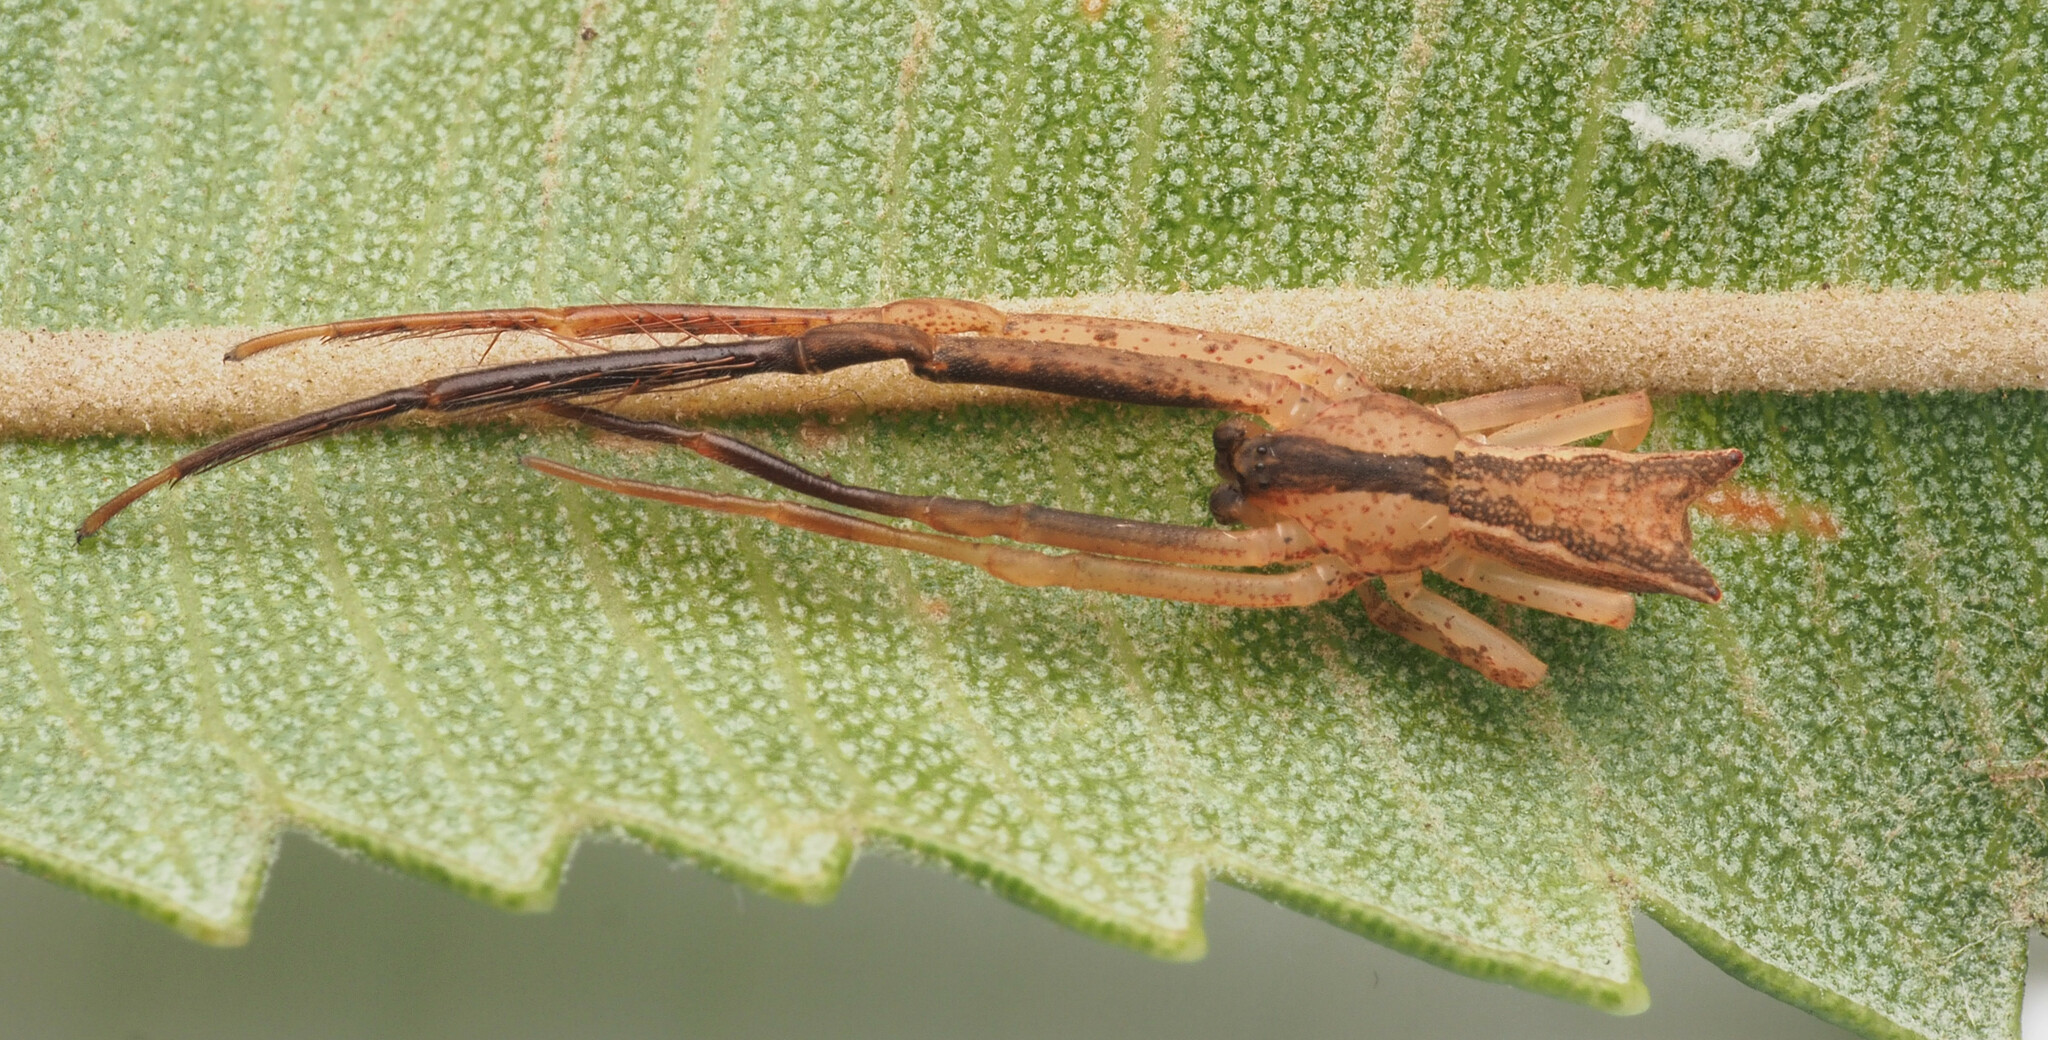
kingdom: Animalia
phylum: Arthropoda
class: Arachnida
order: Araneae
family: Thomisidae
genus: Sidymella
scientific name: Sidymella longipes
